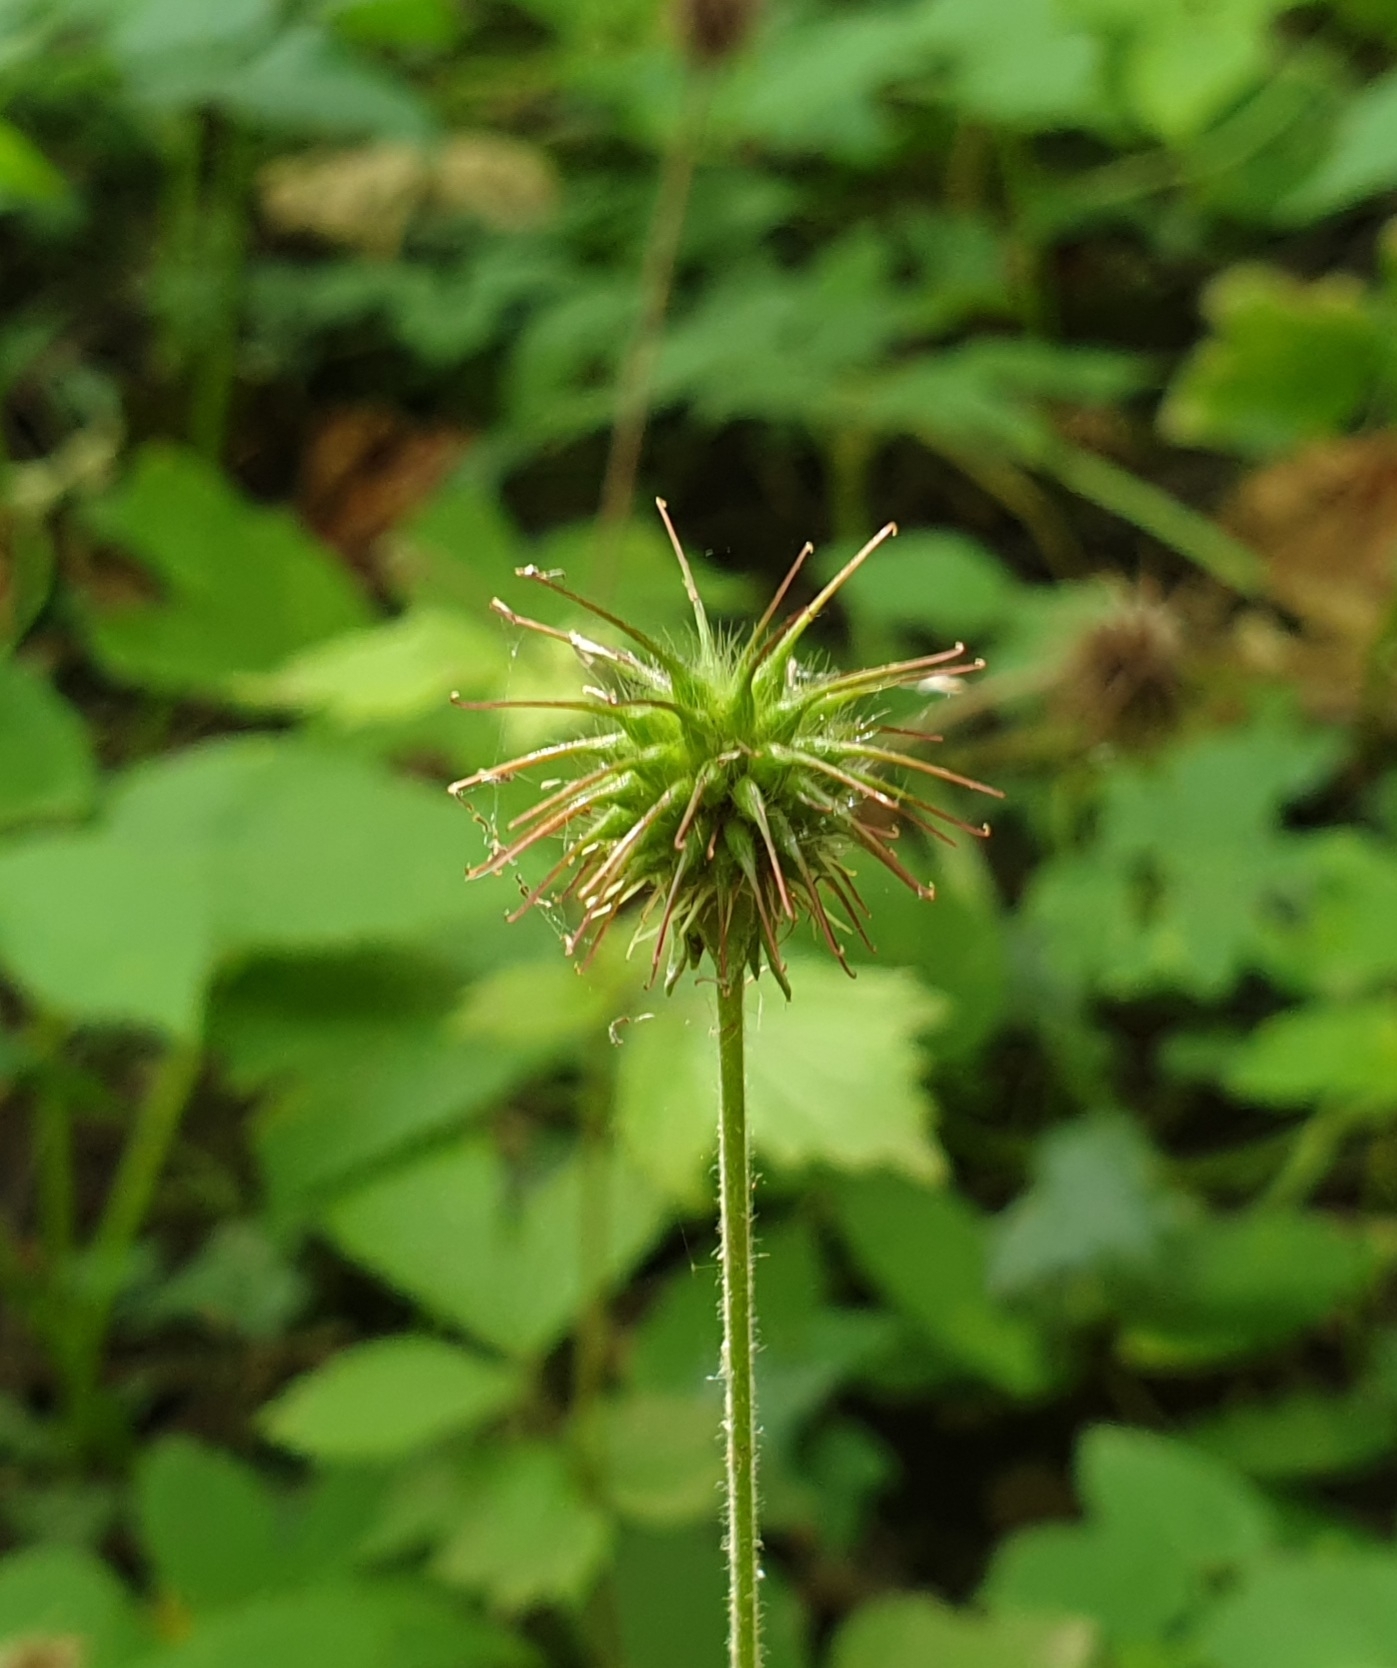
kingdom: Plantae
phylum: Tracheophyta
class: Magnoliopsida
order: Rosales
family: Rosaceae
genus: Geum
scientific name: Geum urbanum
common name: Wood avens
